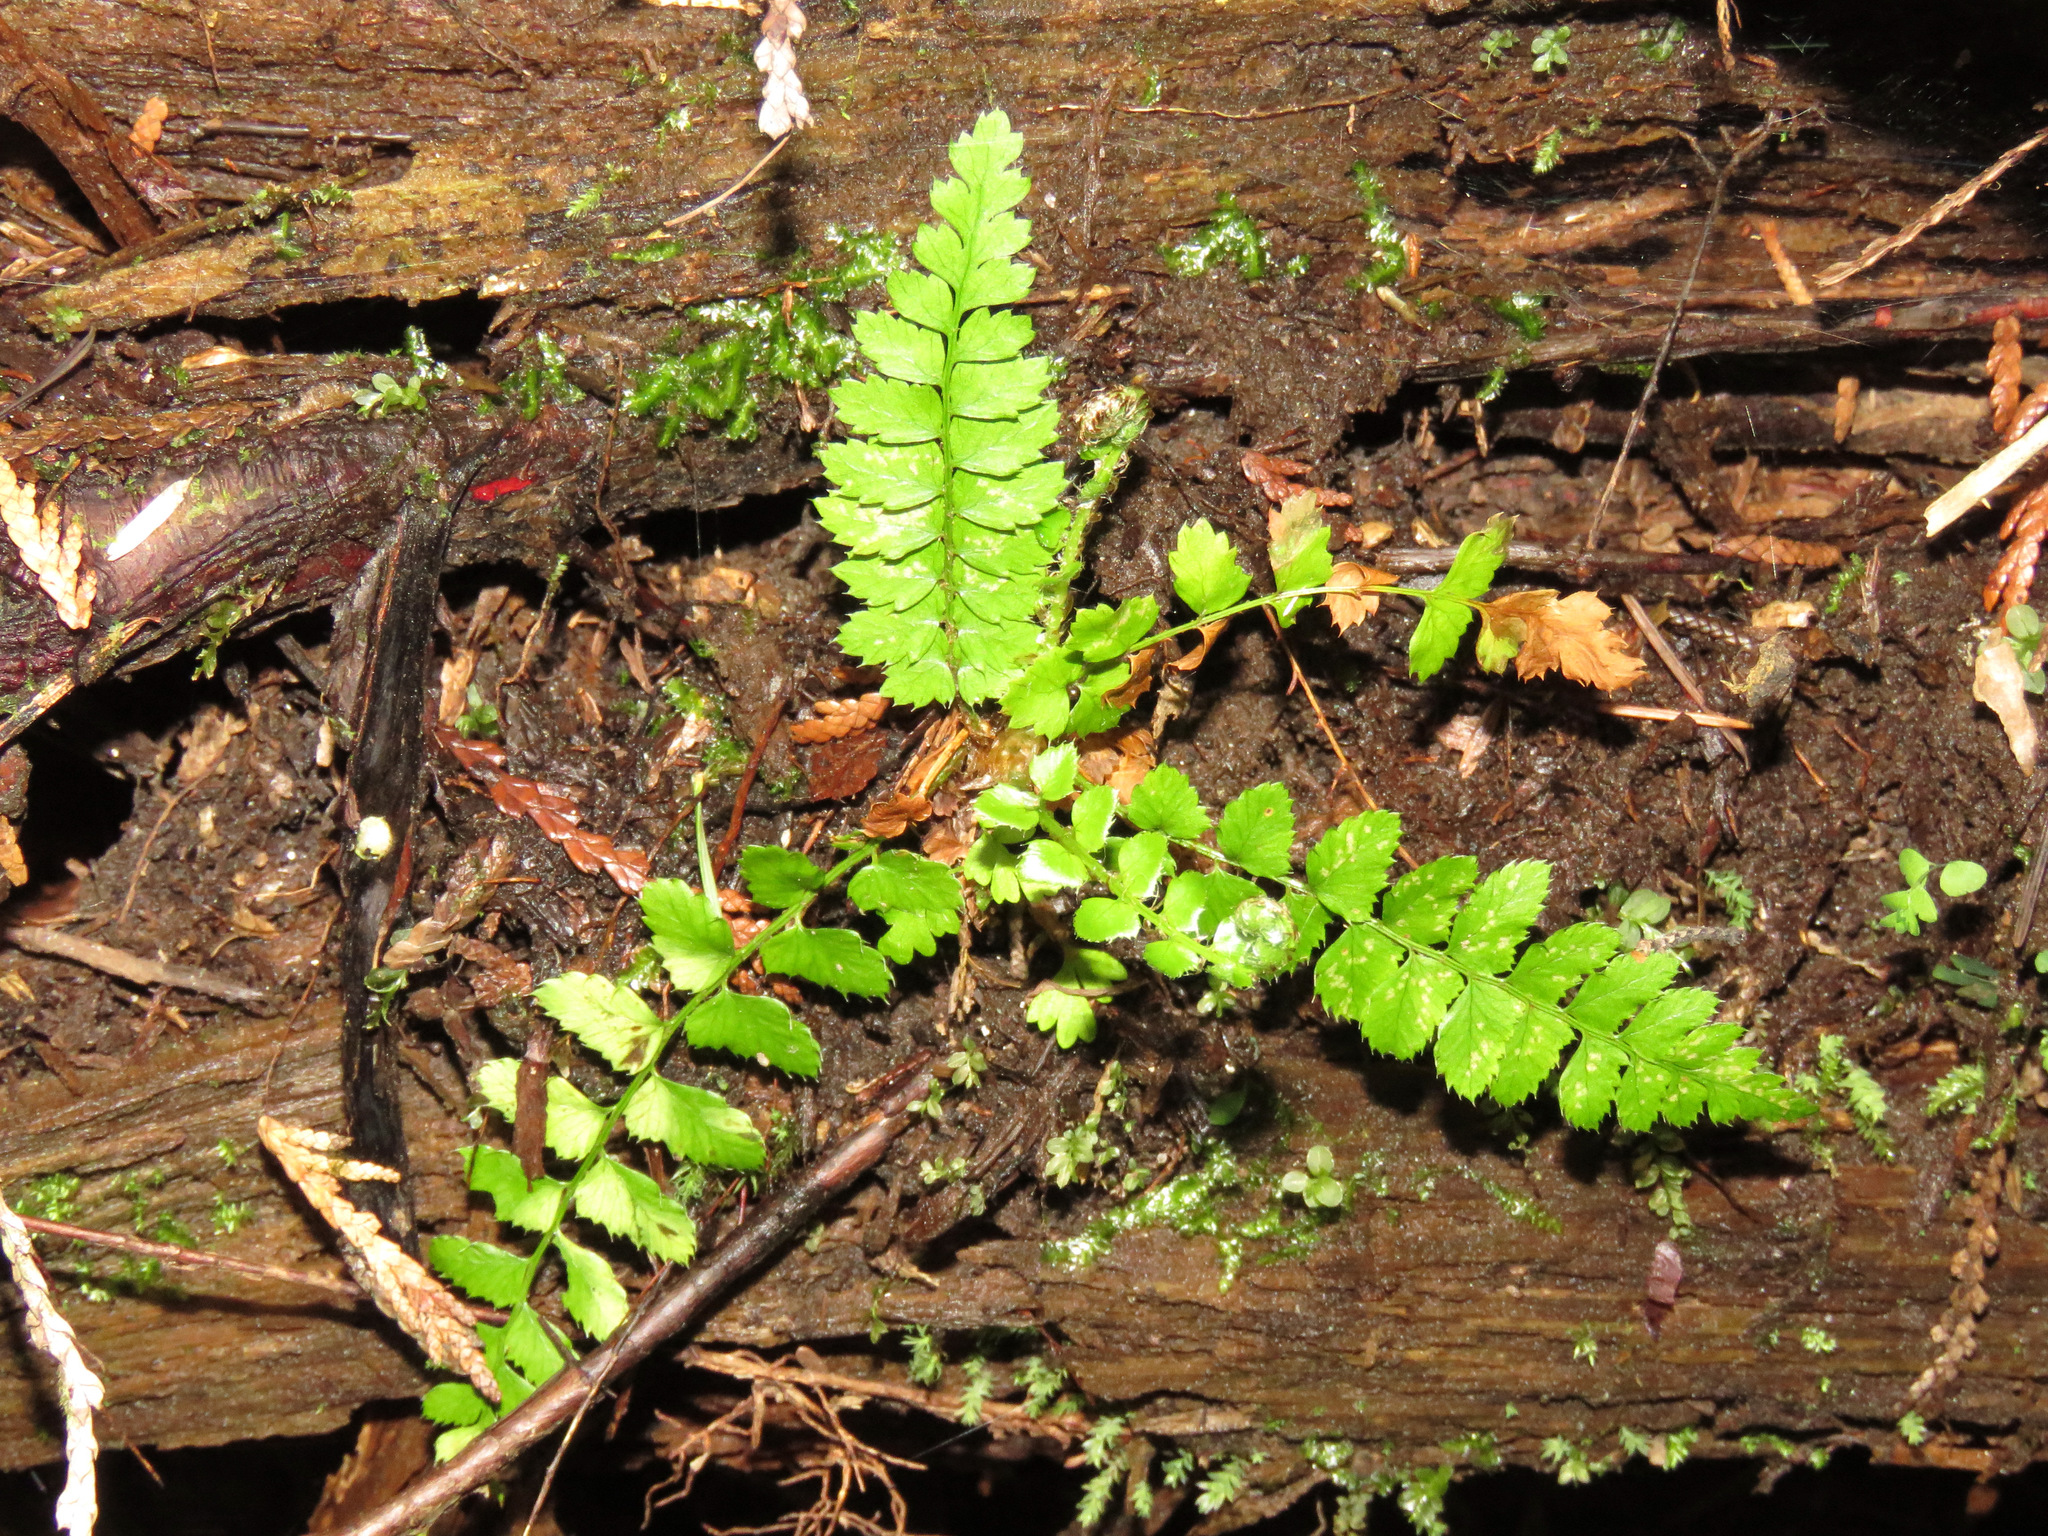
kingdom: Plantae
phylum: Tracheophyta
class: Polypodiopsida
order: Polypodiales
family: Dryopteridaceae
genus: Polystichum
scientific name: Polystichum munitum
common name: Western sword-fern
